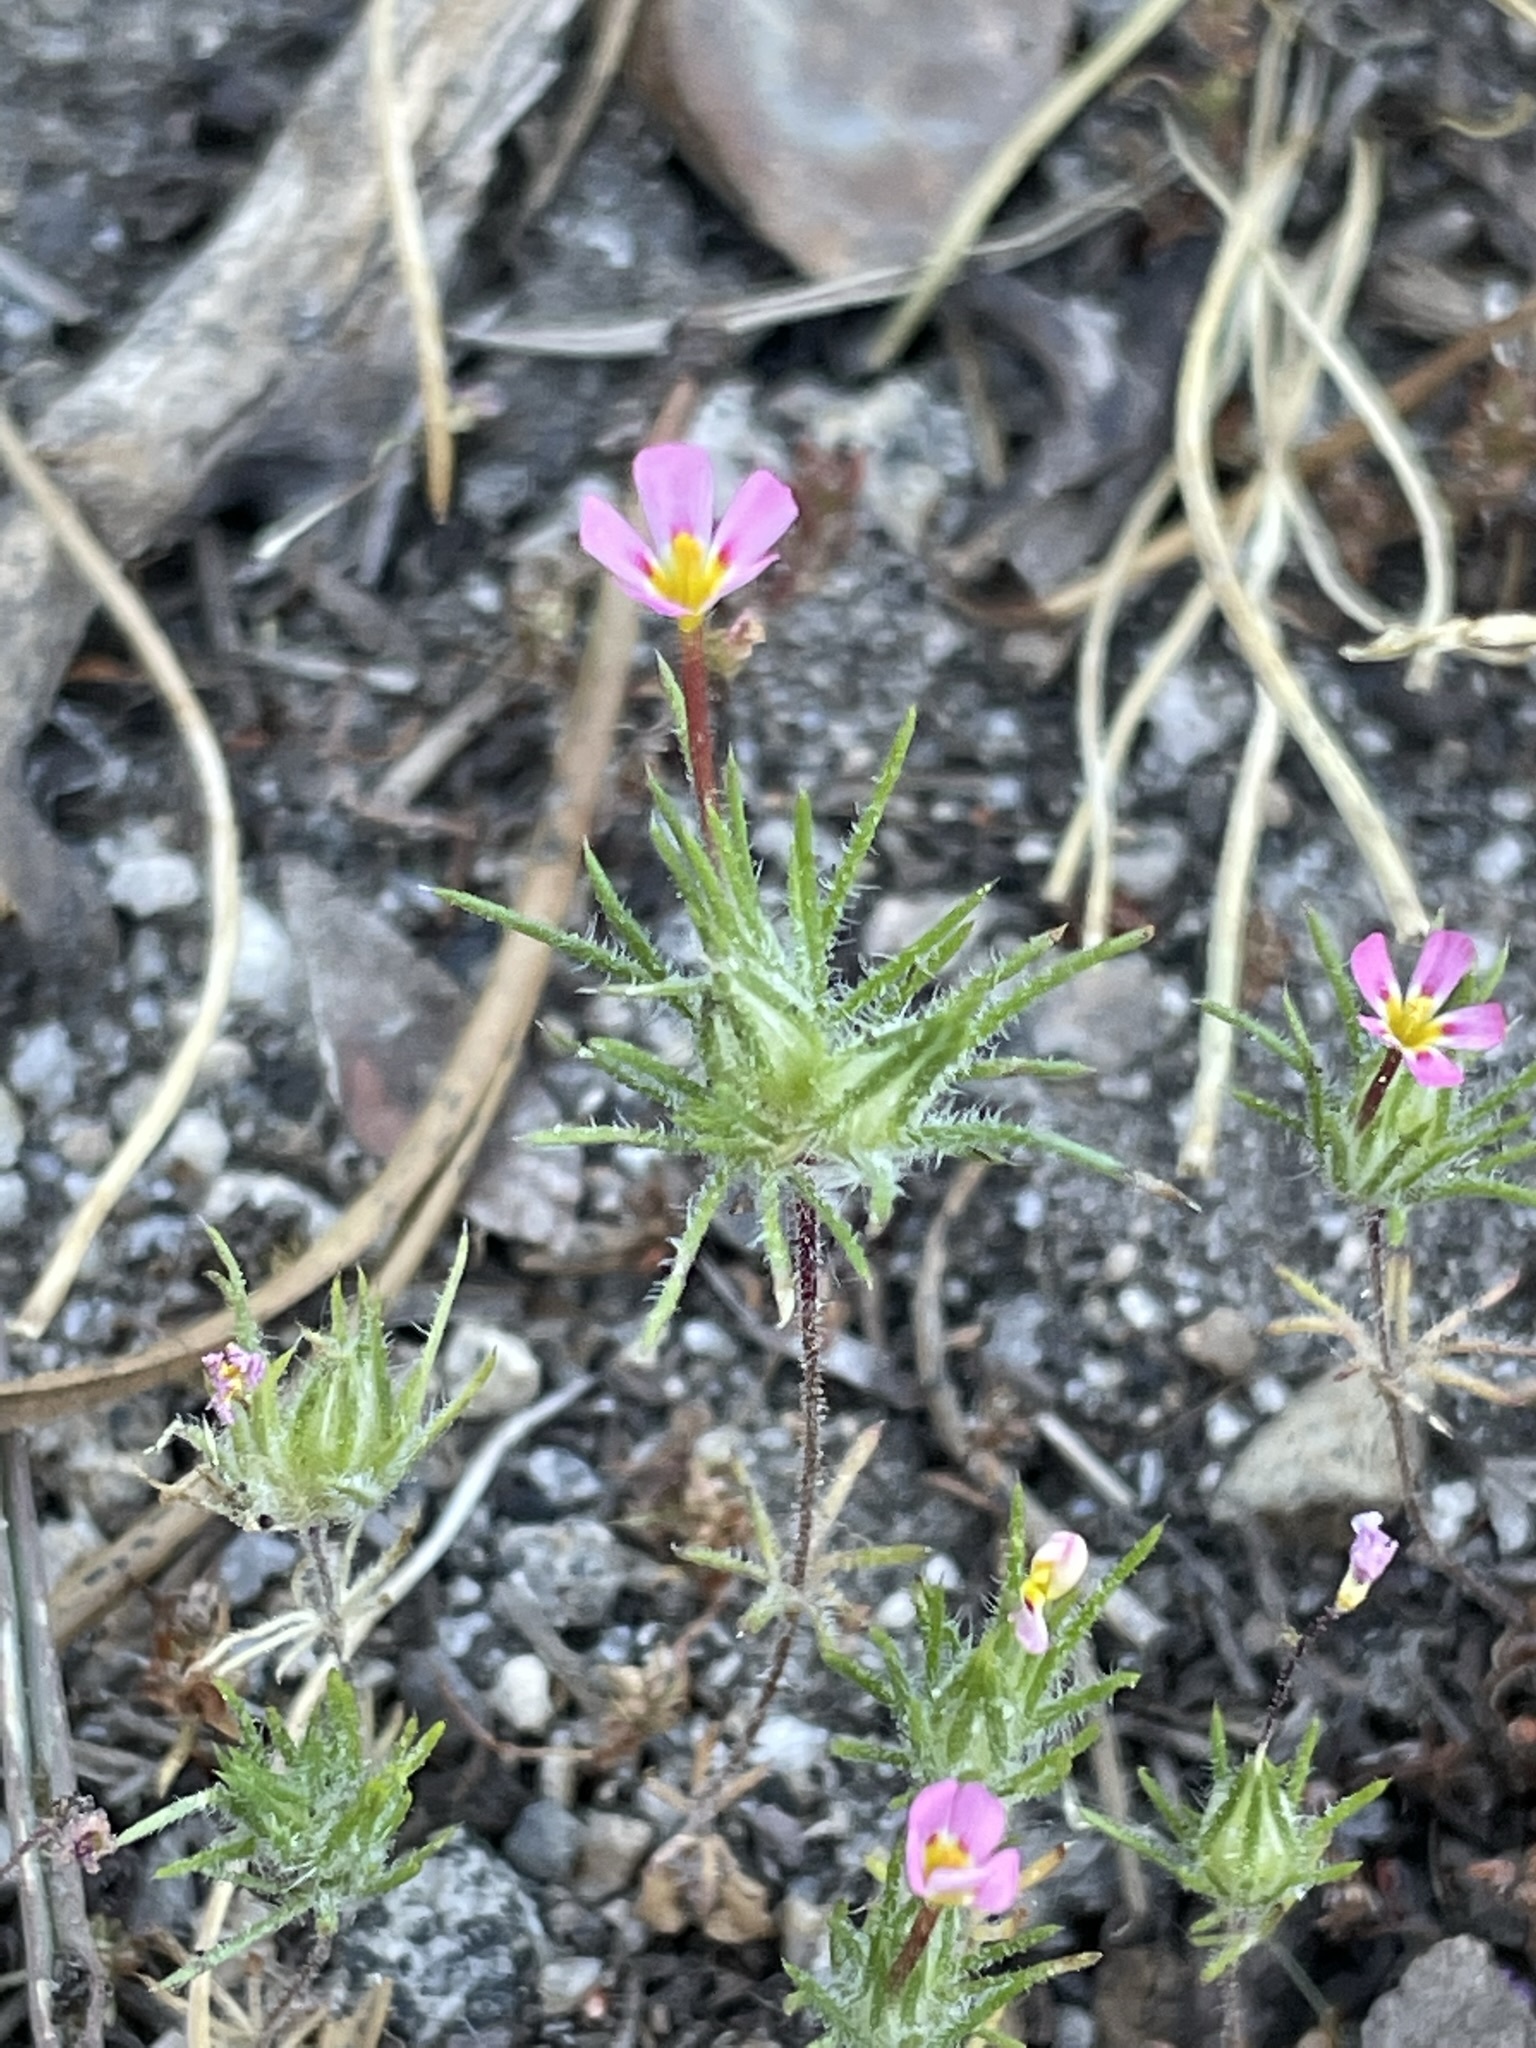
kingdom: Plantae
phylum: Tracheophyta
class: Magnoliopsida
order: Ericales
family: Polemoniaceae
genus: Leptosiphon
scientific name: Leptosiphon ciliatus
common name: Whiskerbrush
